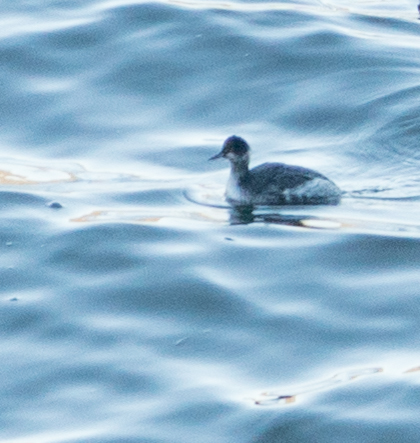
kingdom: Animalia
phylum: Chordata
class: Aves
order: Podicipediformes
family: Podicipedidae
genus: Podiceps
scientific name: Podiceps nigricollis
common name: Black-necked grebe
